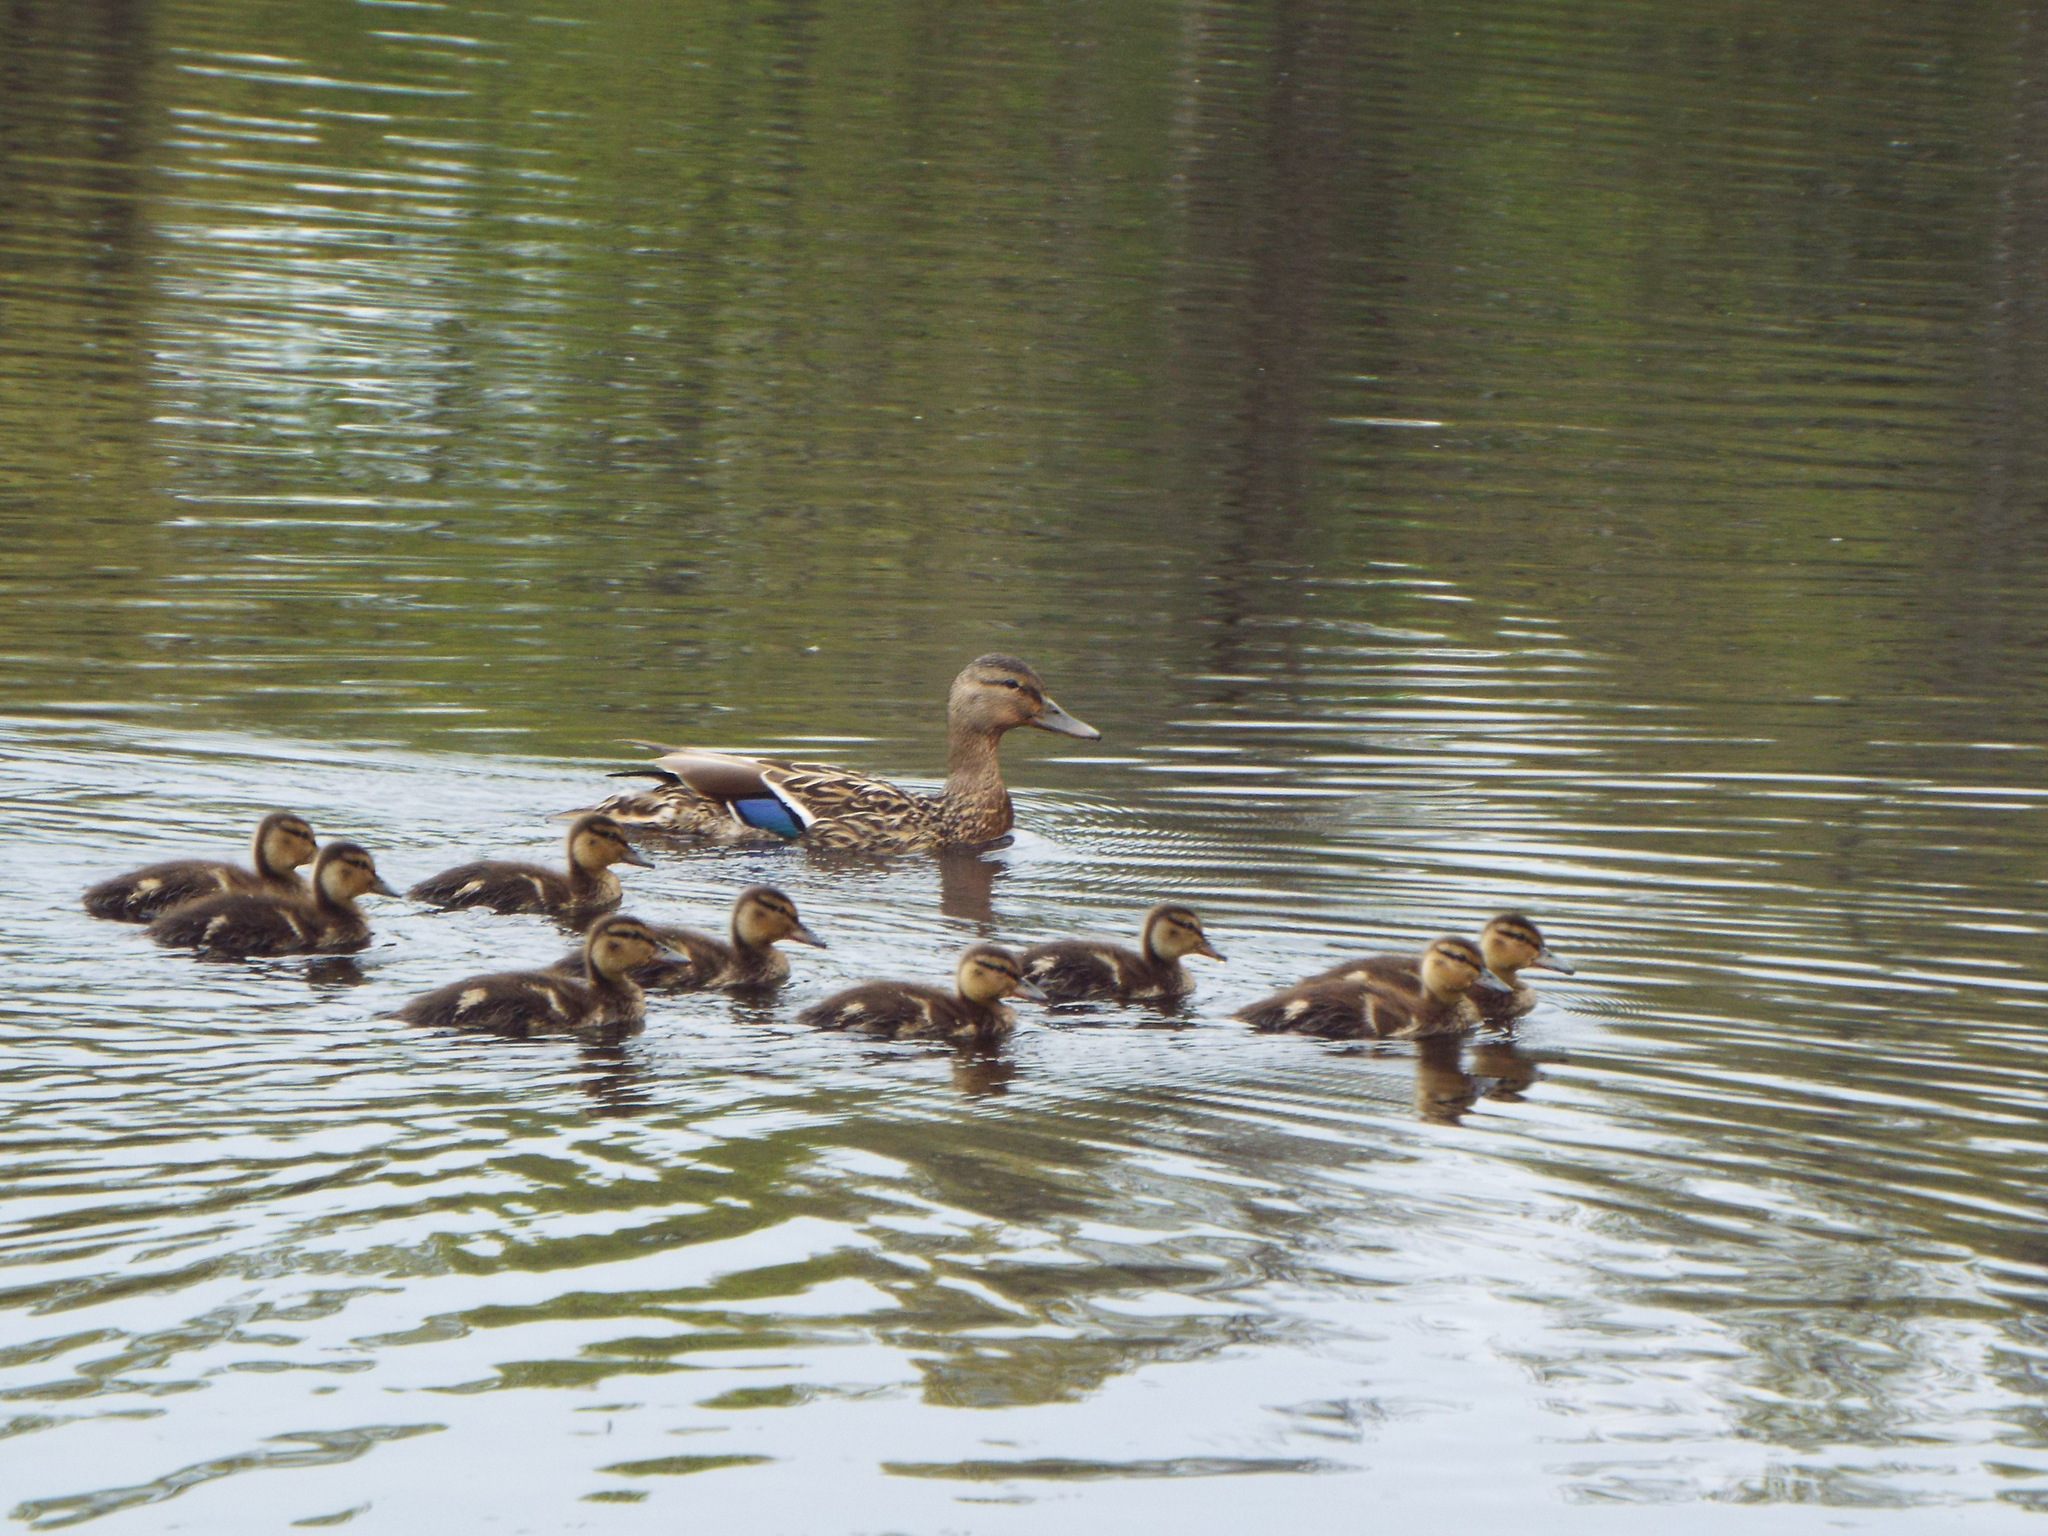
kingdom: Animalia
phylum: Chordata
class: Aves
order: Anseriformes
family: Anatidae
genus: Anas
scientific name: Anas platyrhynchos
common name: Mallard
